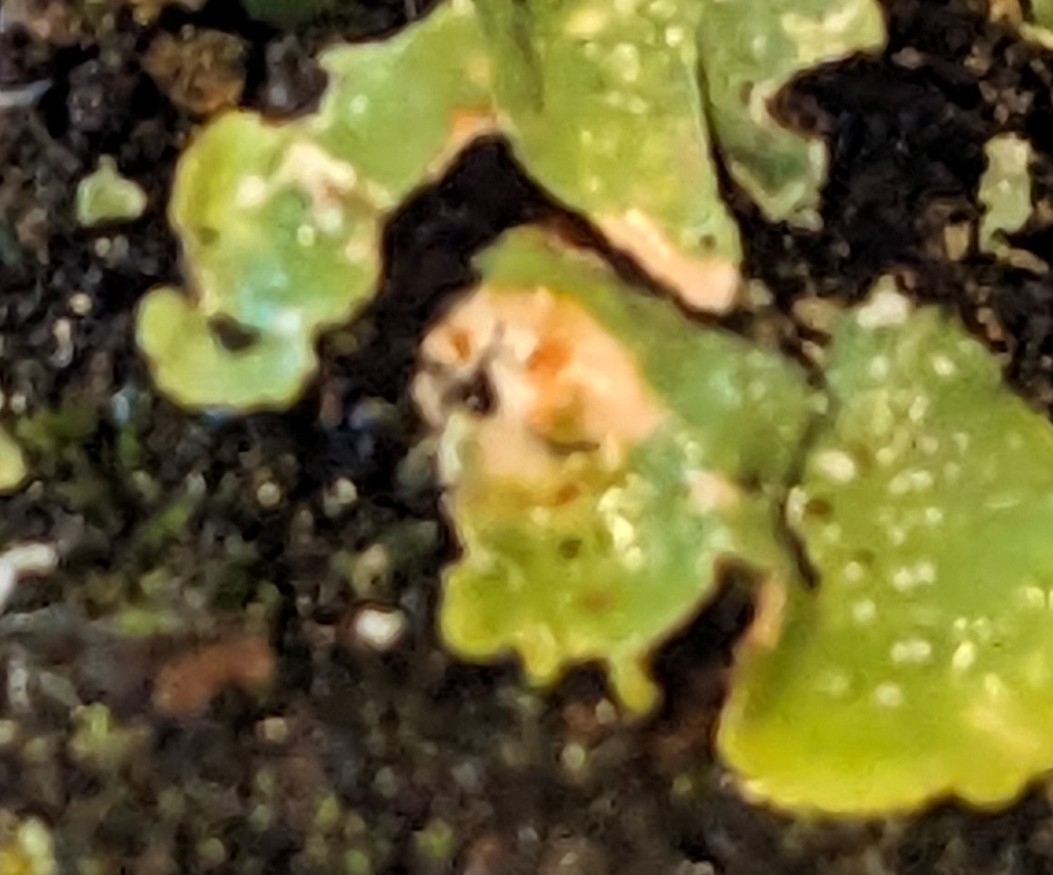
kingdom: Fungi
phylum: Ascomycota
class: Lecanoromycetes
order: Lecanorales
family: Parmeliaceae
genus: Punctelia
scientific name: Punctelia borreri
